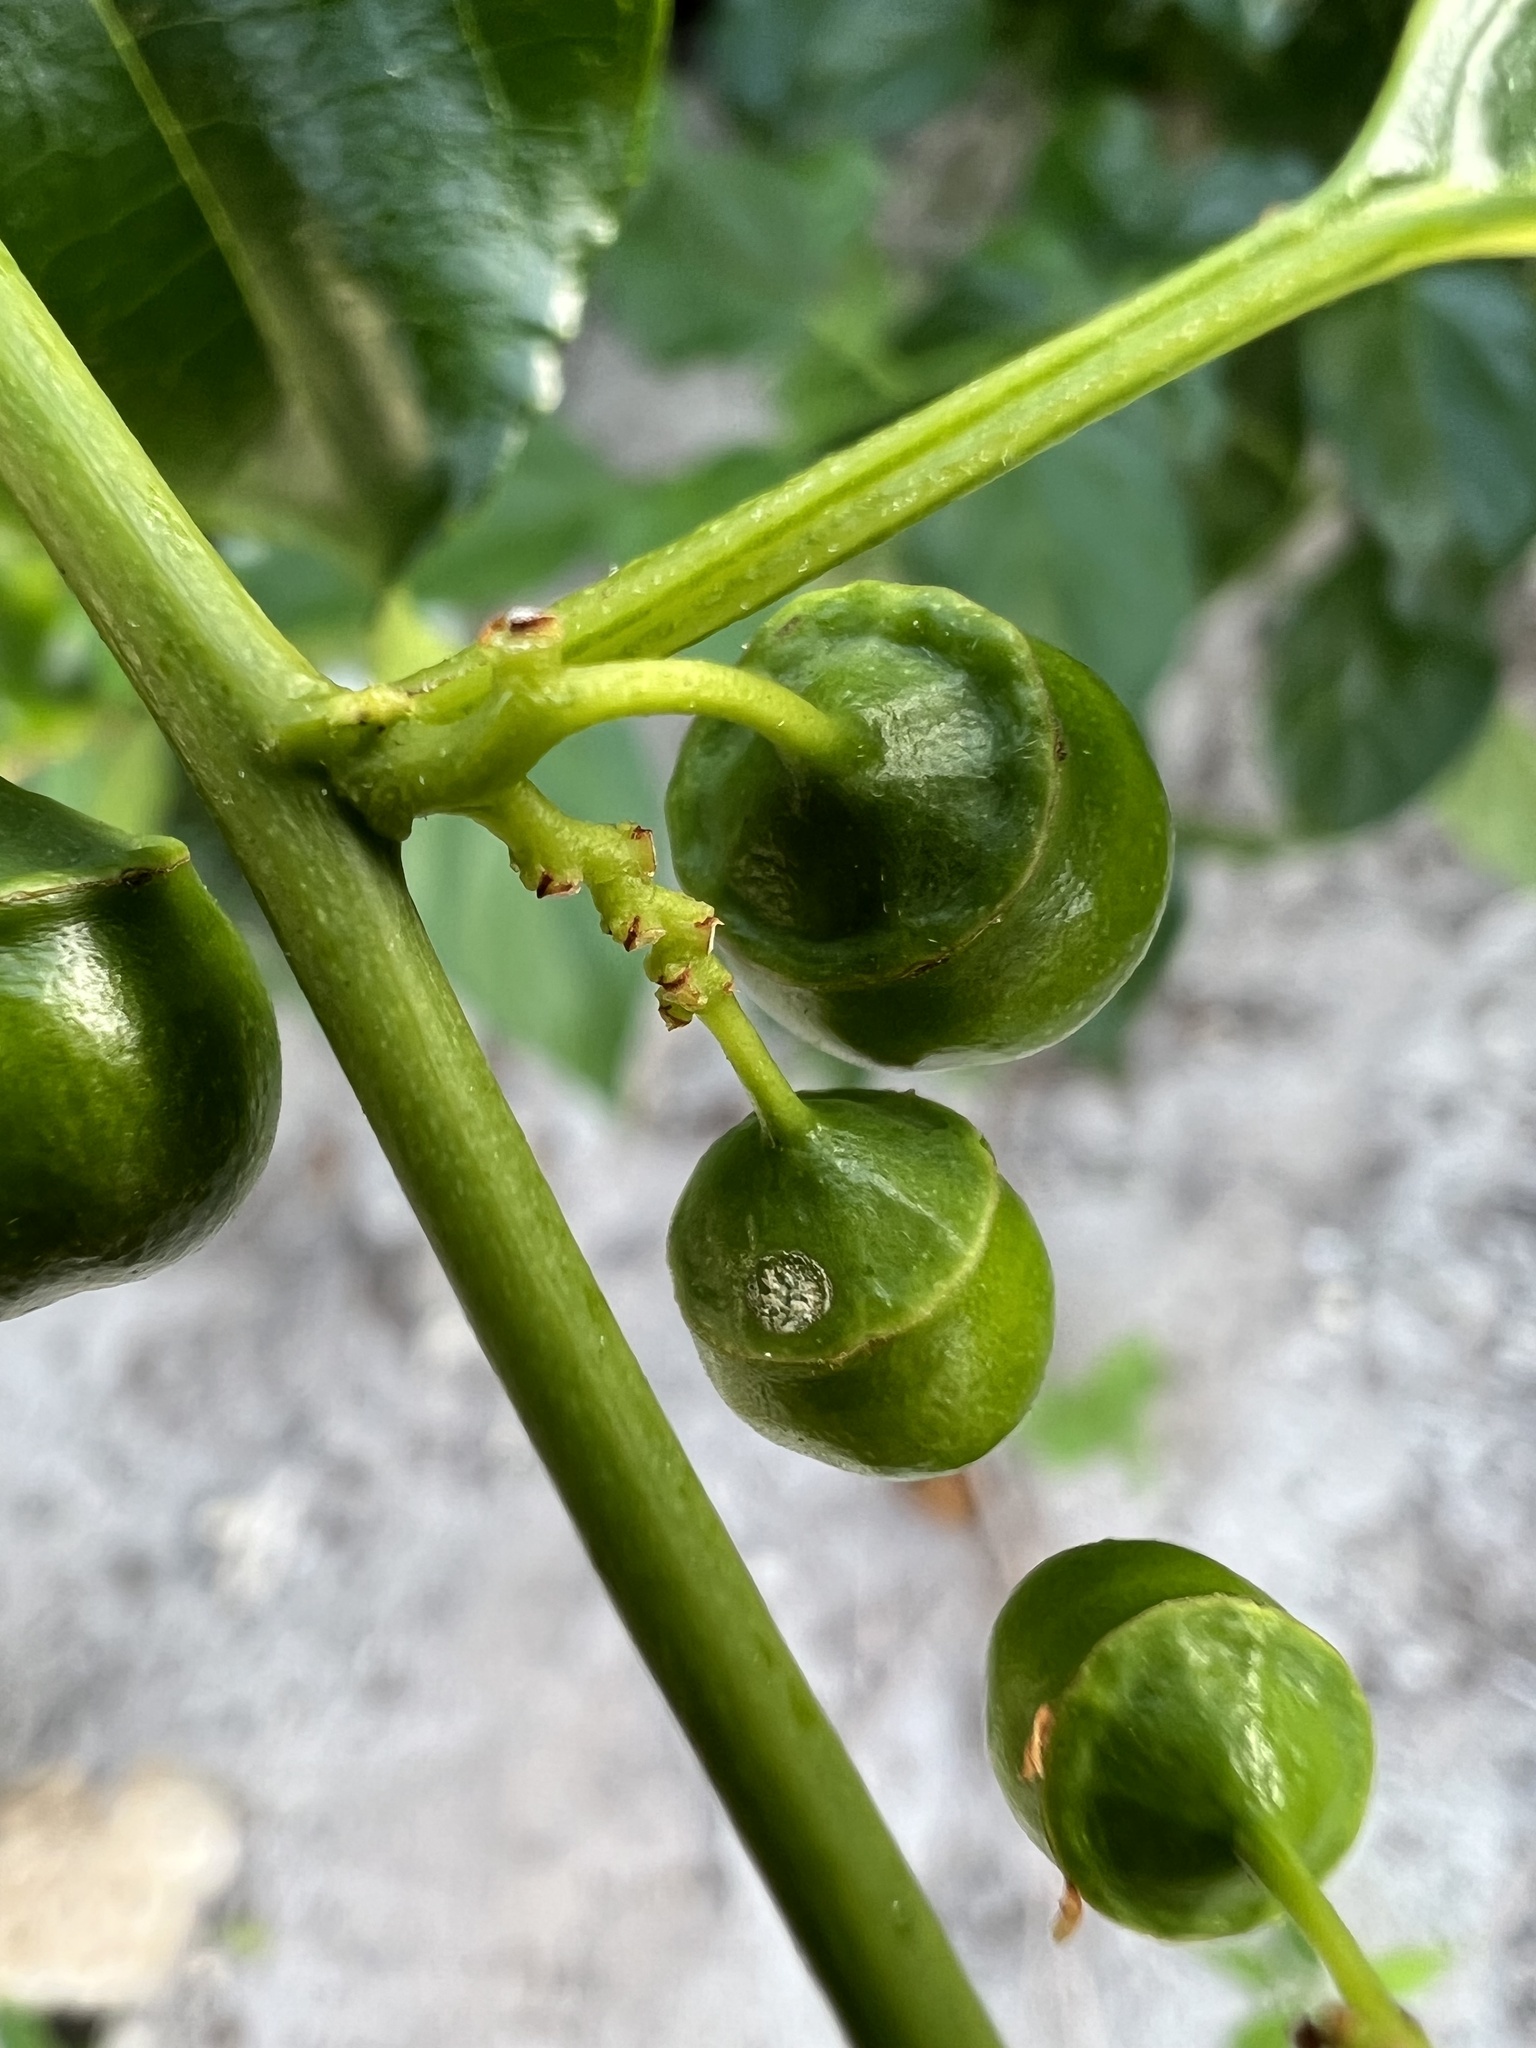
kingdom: Plantae
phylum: Tracheophyta
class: Magnoliopsida
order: Rosales
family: Rhamnaceae
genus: Colubrina
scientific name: Colubrina asiatica
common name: Asian nakedwood
